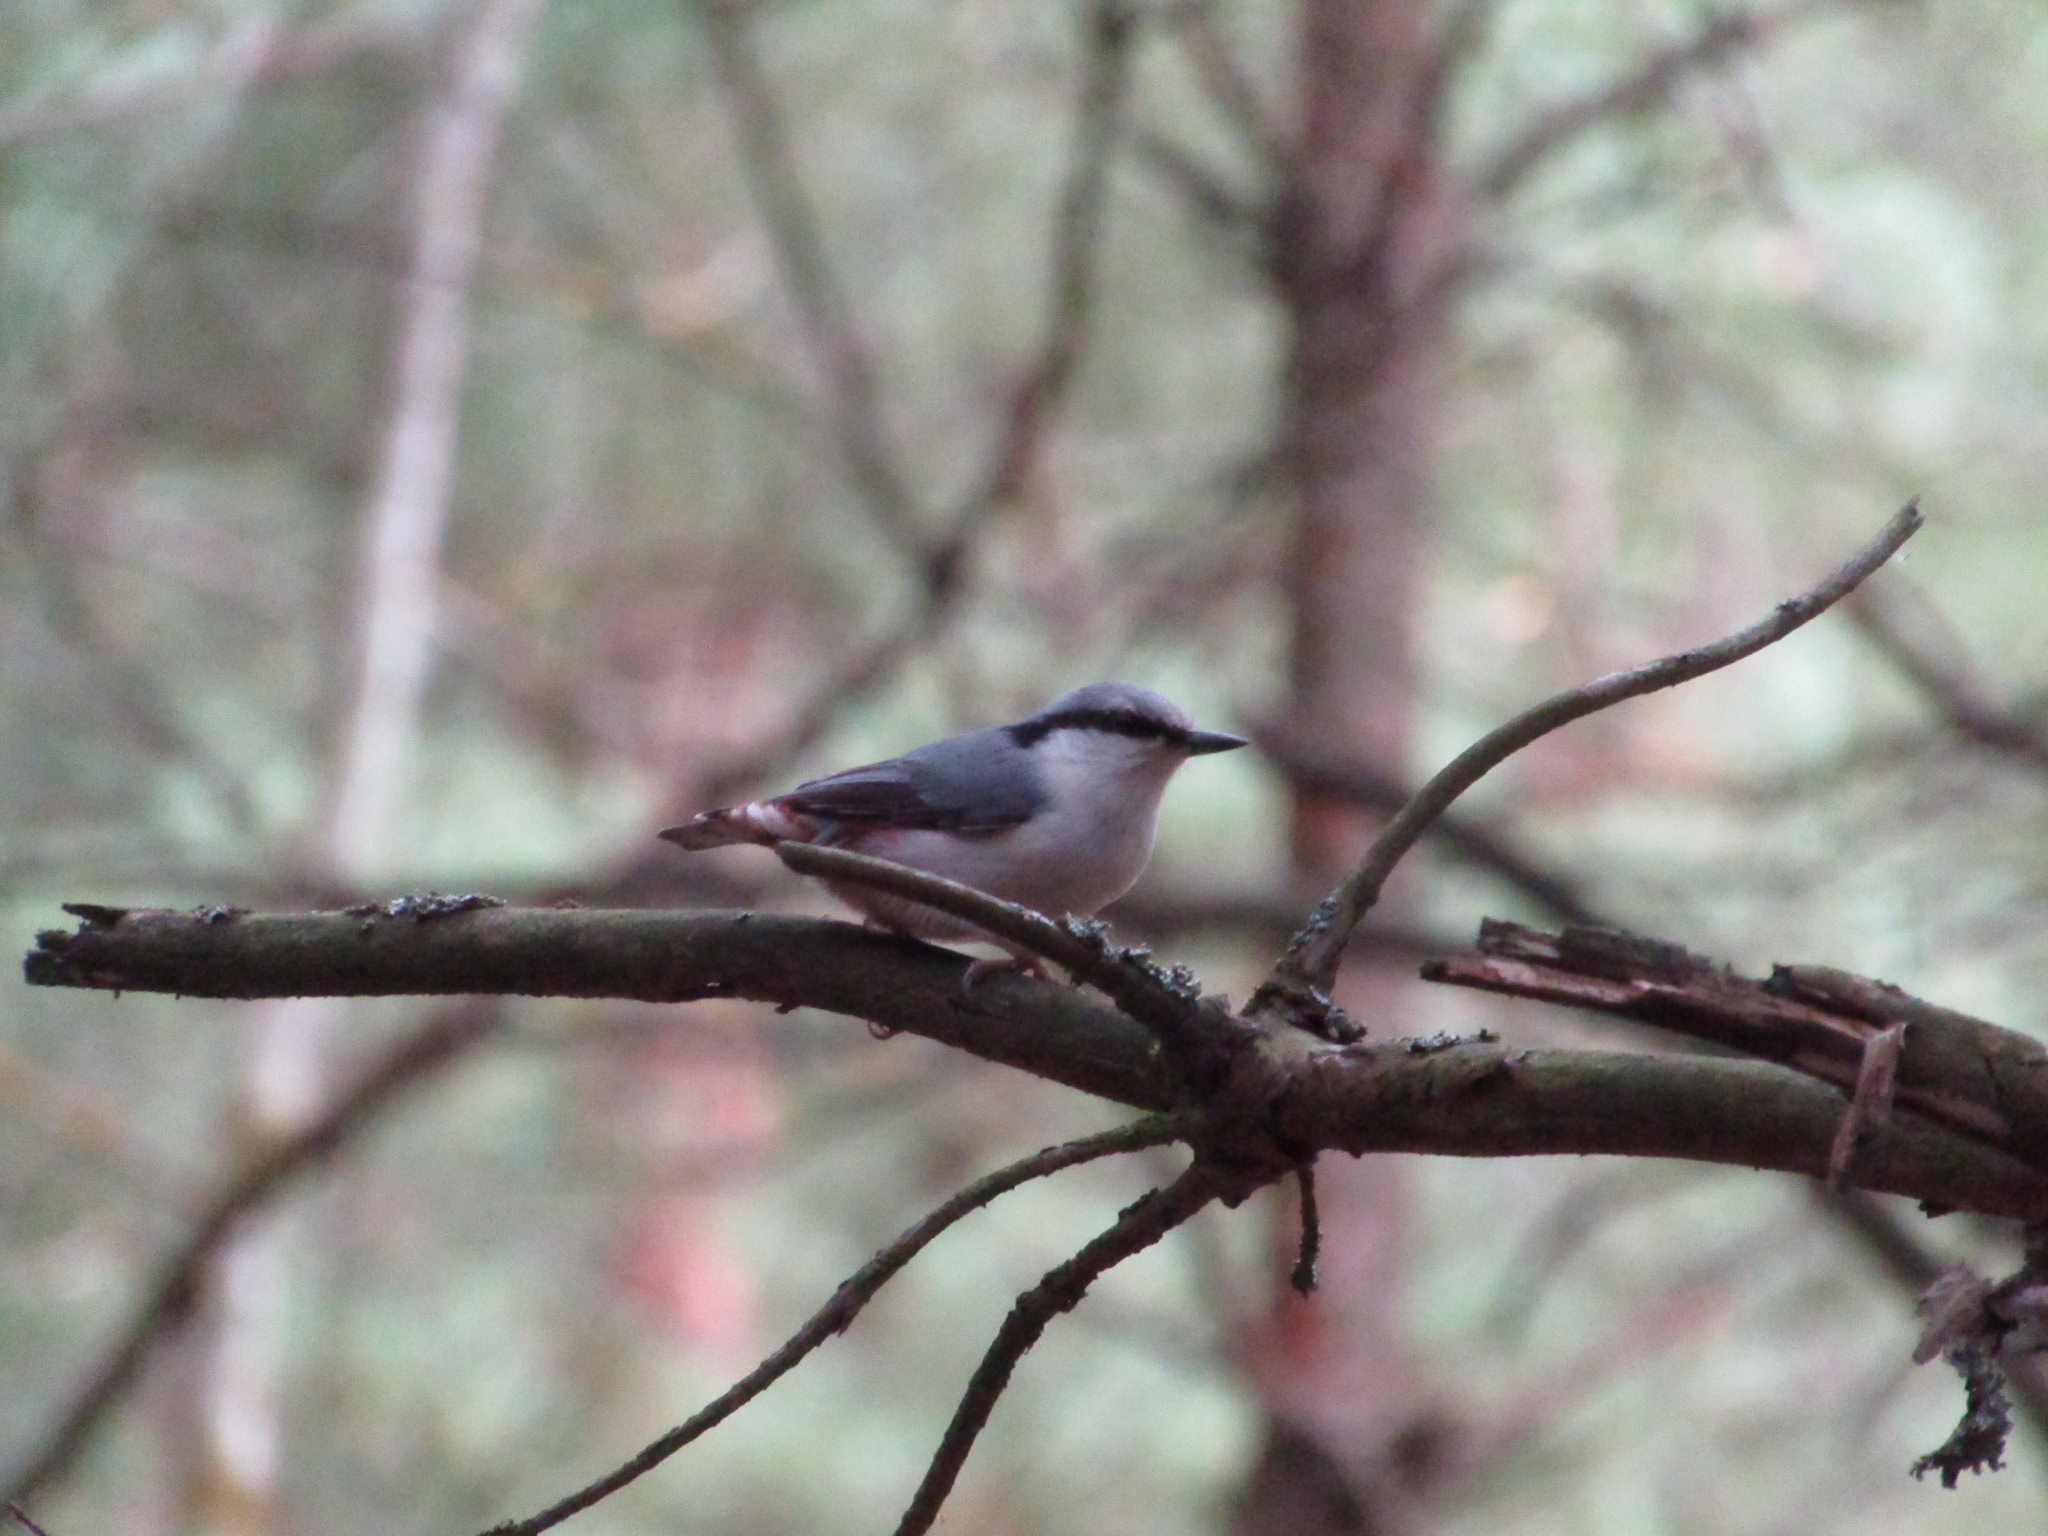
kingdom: Animalia
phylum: Chordata
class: Aves
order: Passeriformes
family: Sittidae
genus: Sitta
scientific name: Sitta europaea
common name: Eurasian nuthatch
